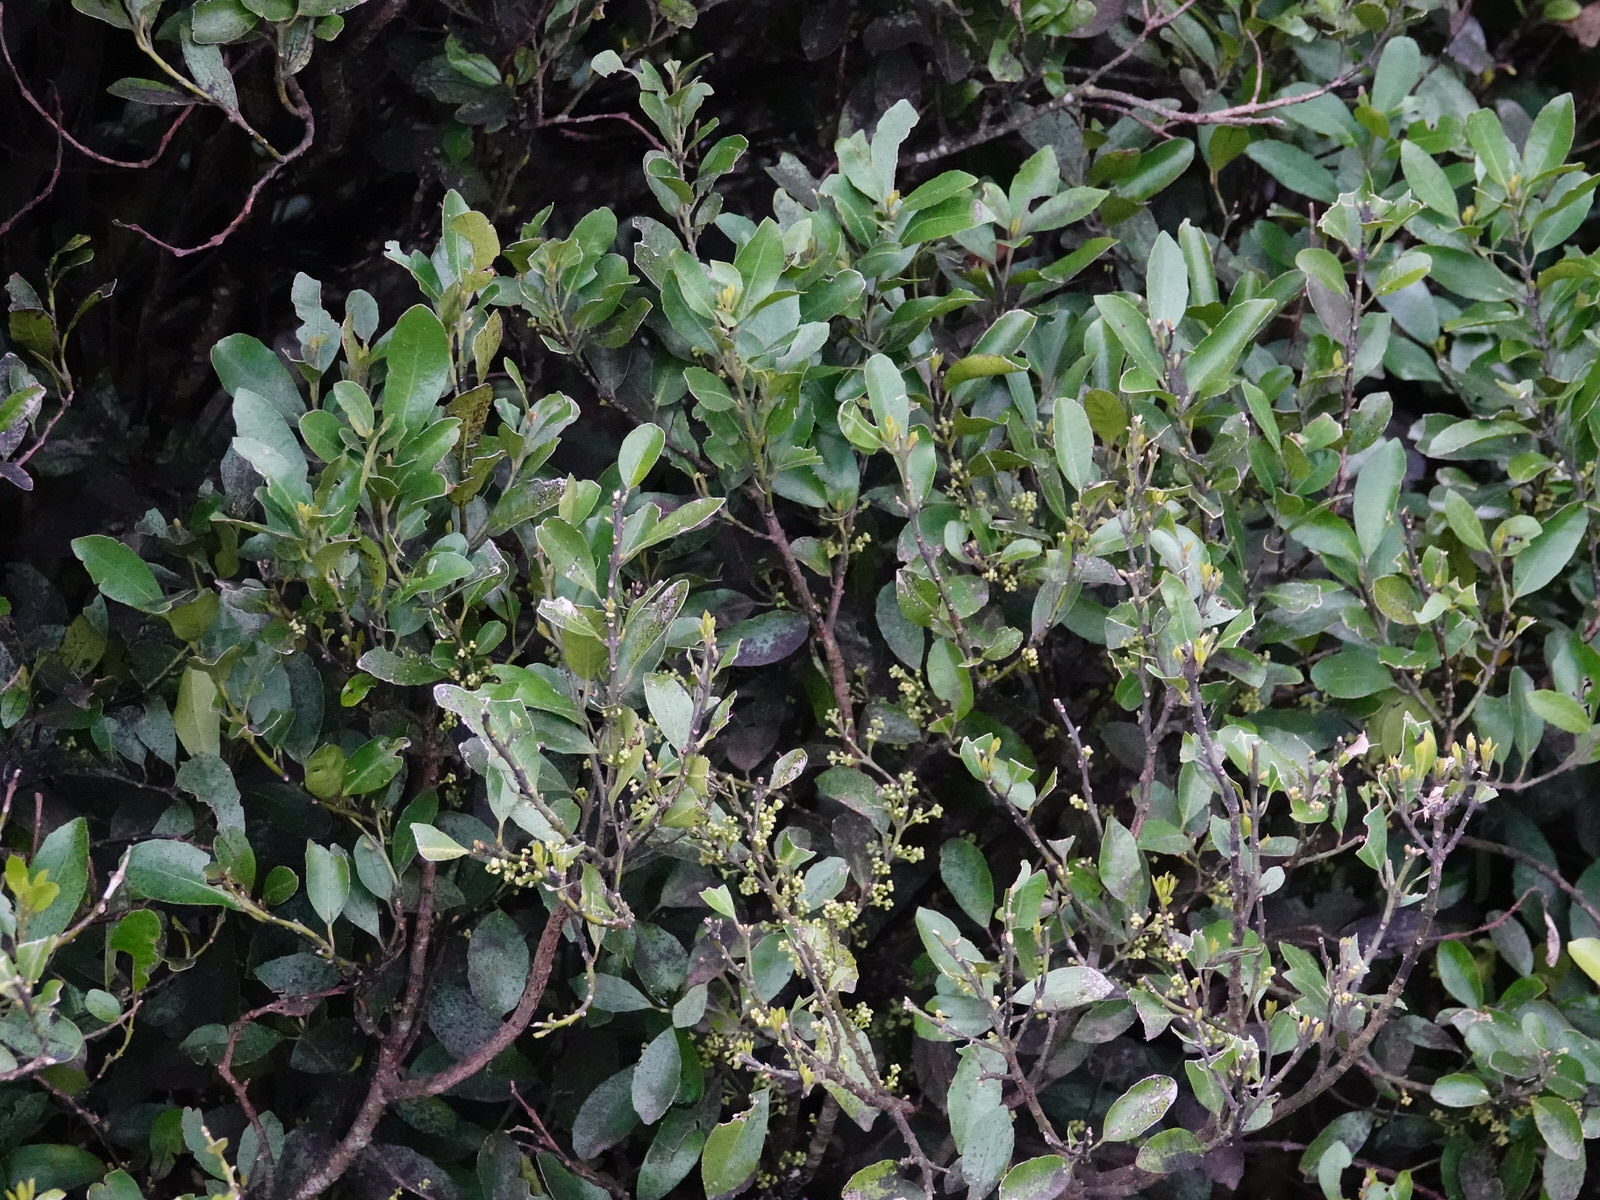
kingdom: Plantae
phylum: Tracheophyta
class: Magnoliopsida
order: Laurales
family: Monimiaceae
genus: Hedycarya
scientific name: Hedycarya arborea
